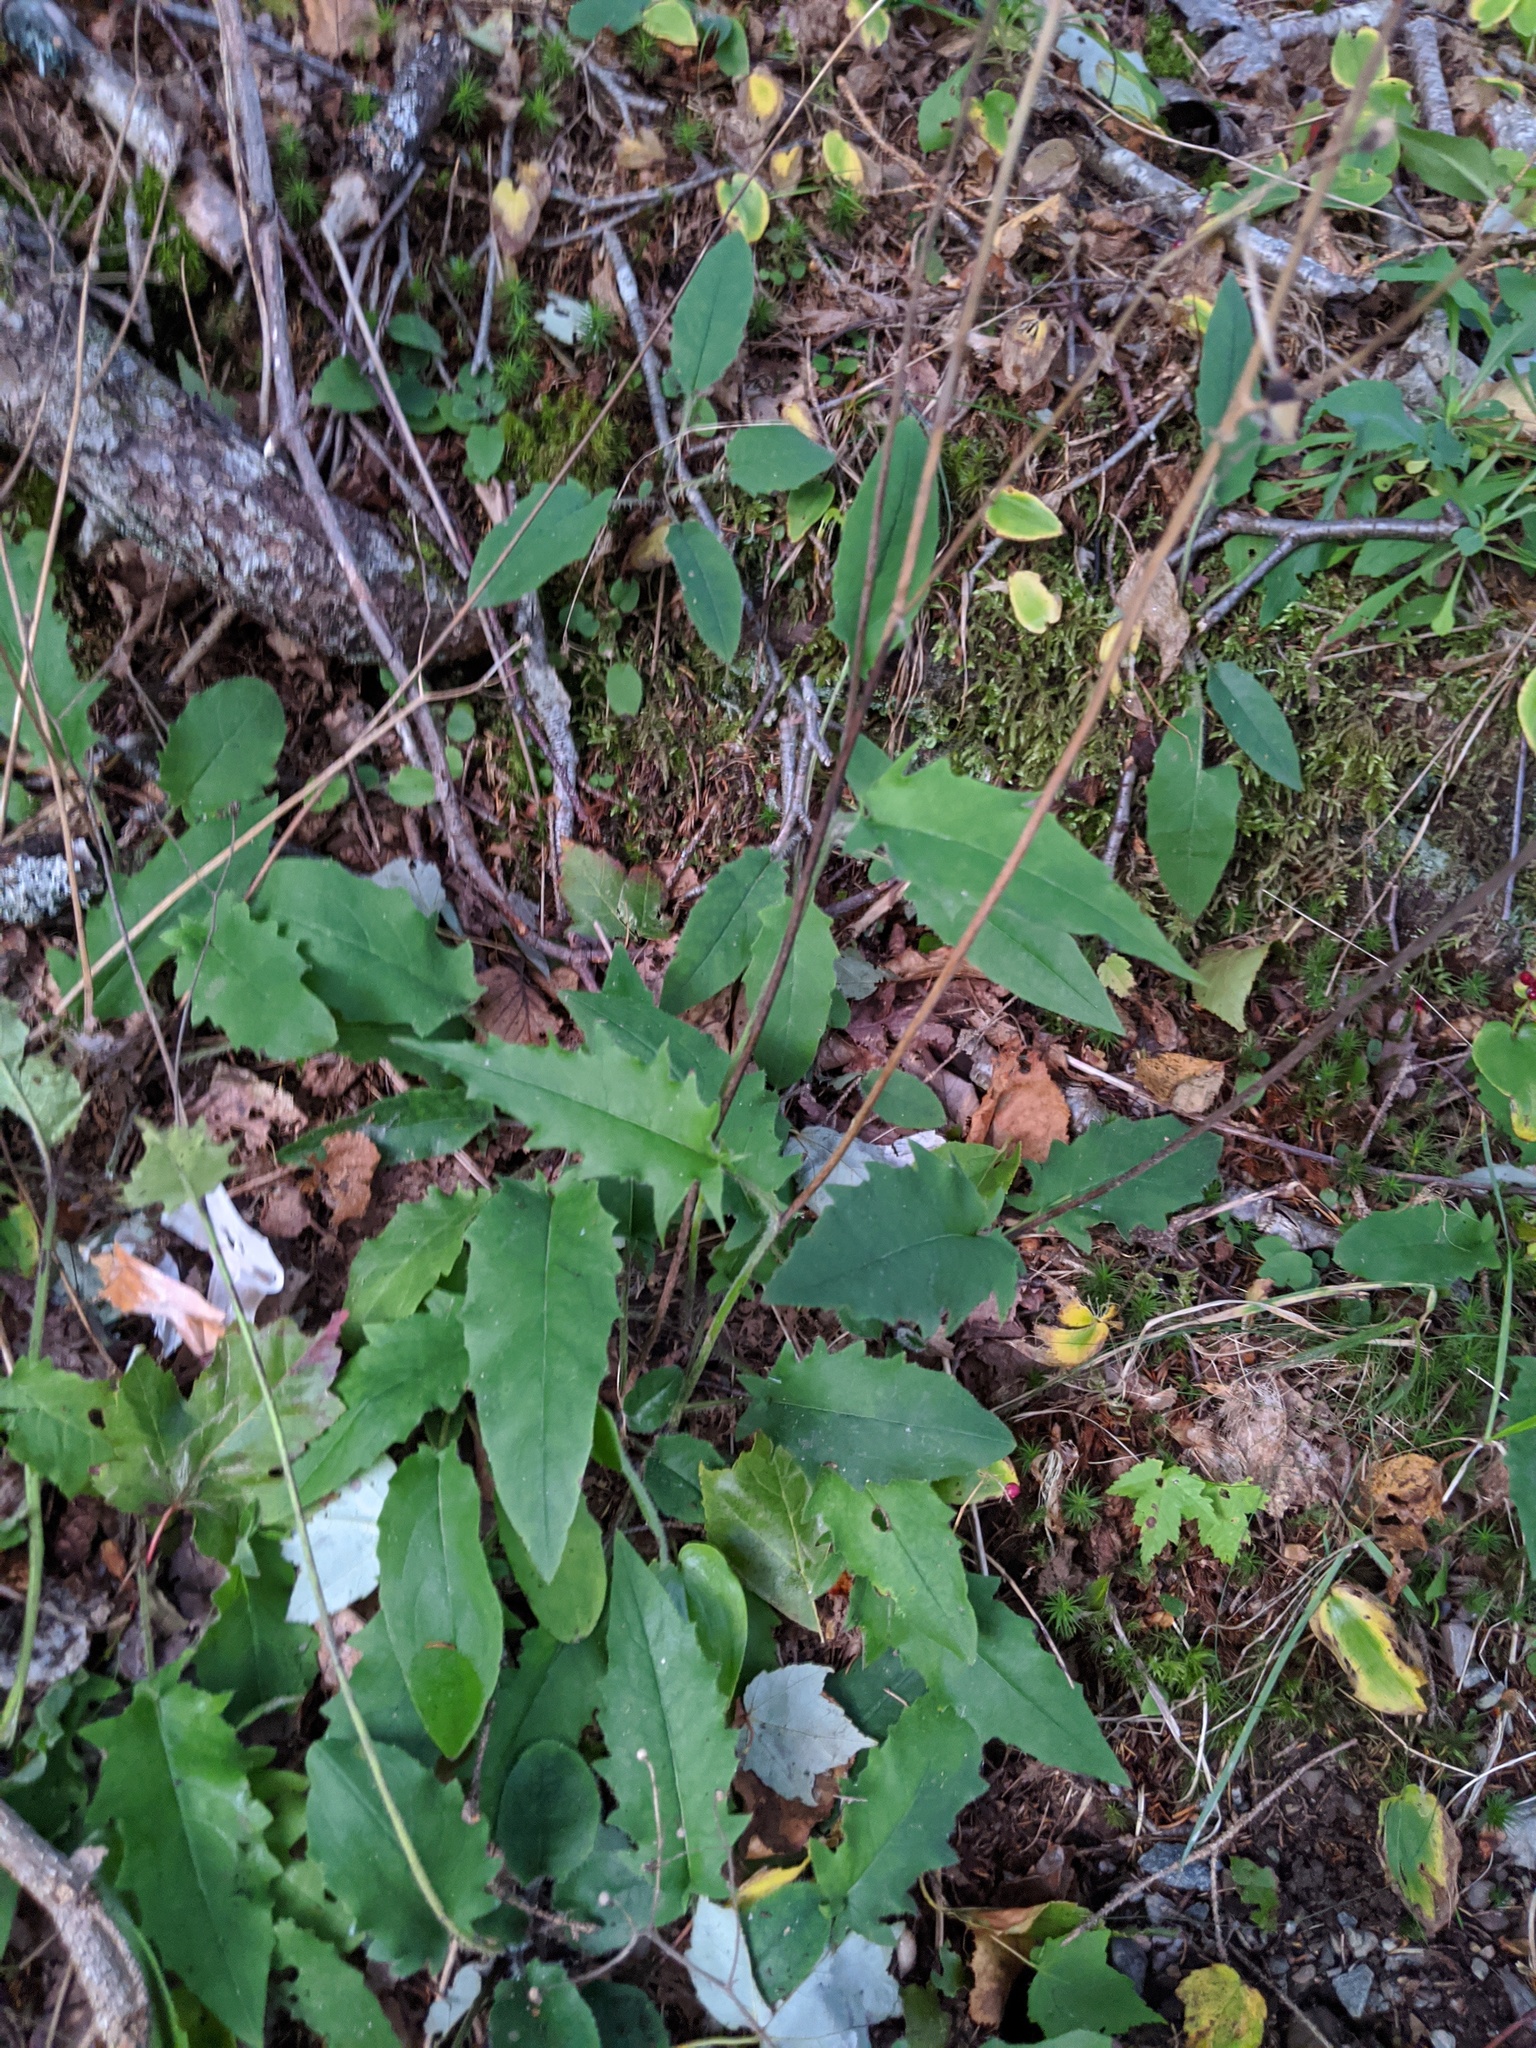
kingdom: Plantae
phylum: Tracheophyta
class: Magnoliopsida
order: Asterales
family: Asteraceae
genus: Hieracium
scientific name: Hieracium murorum
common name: Wall hawkweed
